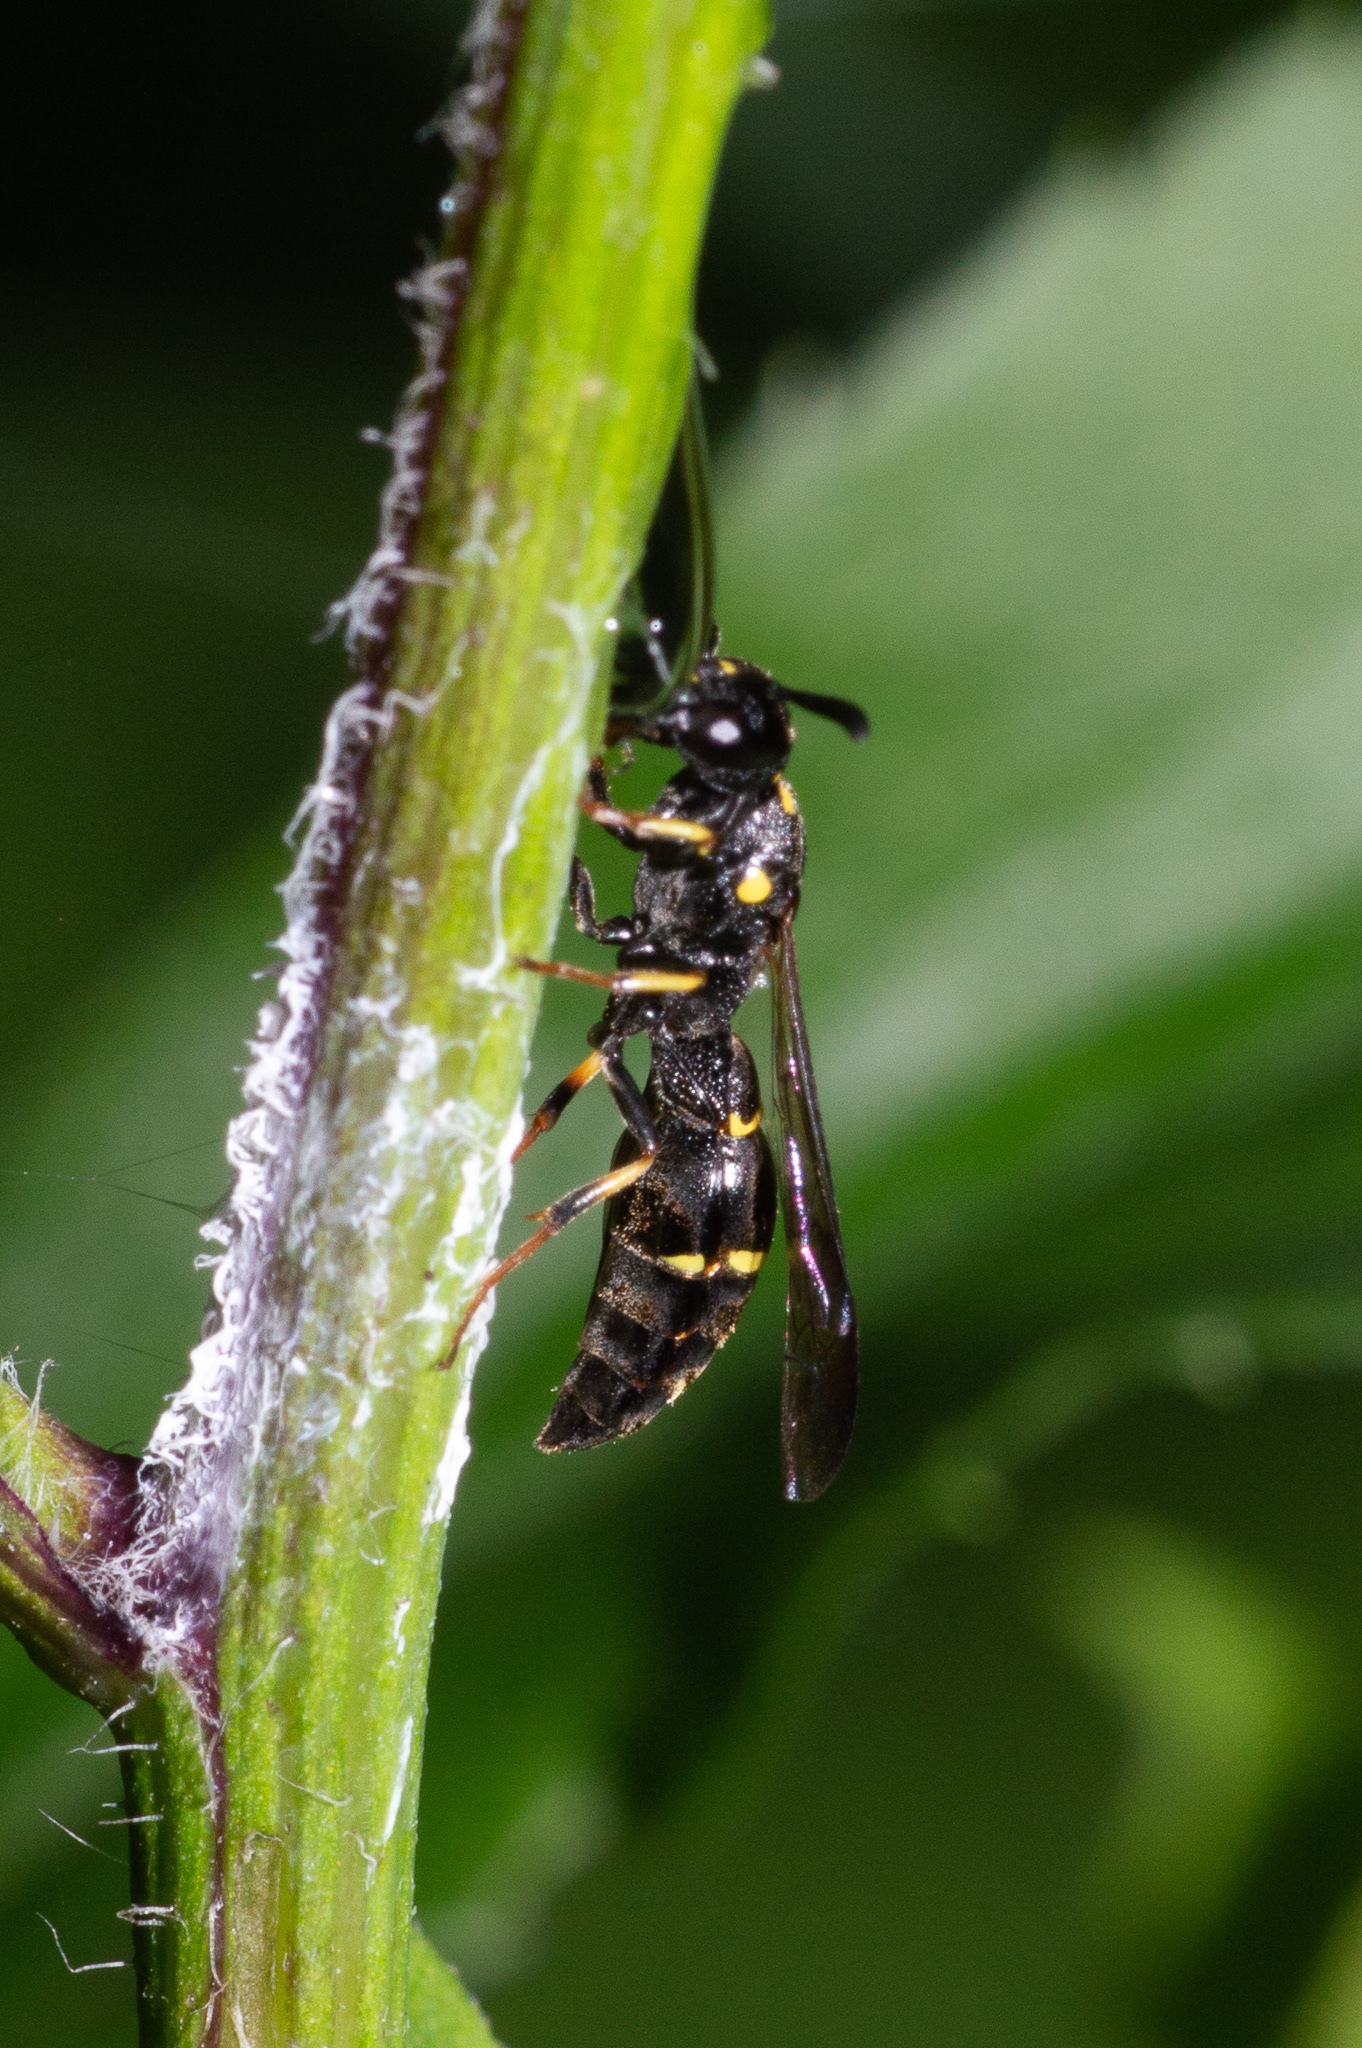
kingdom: Animalia
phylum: Arthropoda
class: Insecta
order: Hymenoptera
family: Eumenidae
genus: Symmorphus
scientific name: Symmorphus
